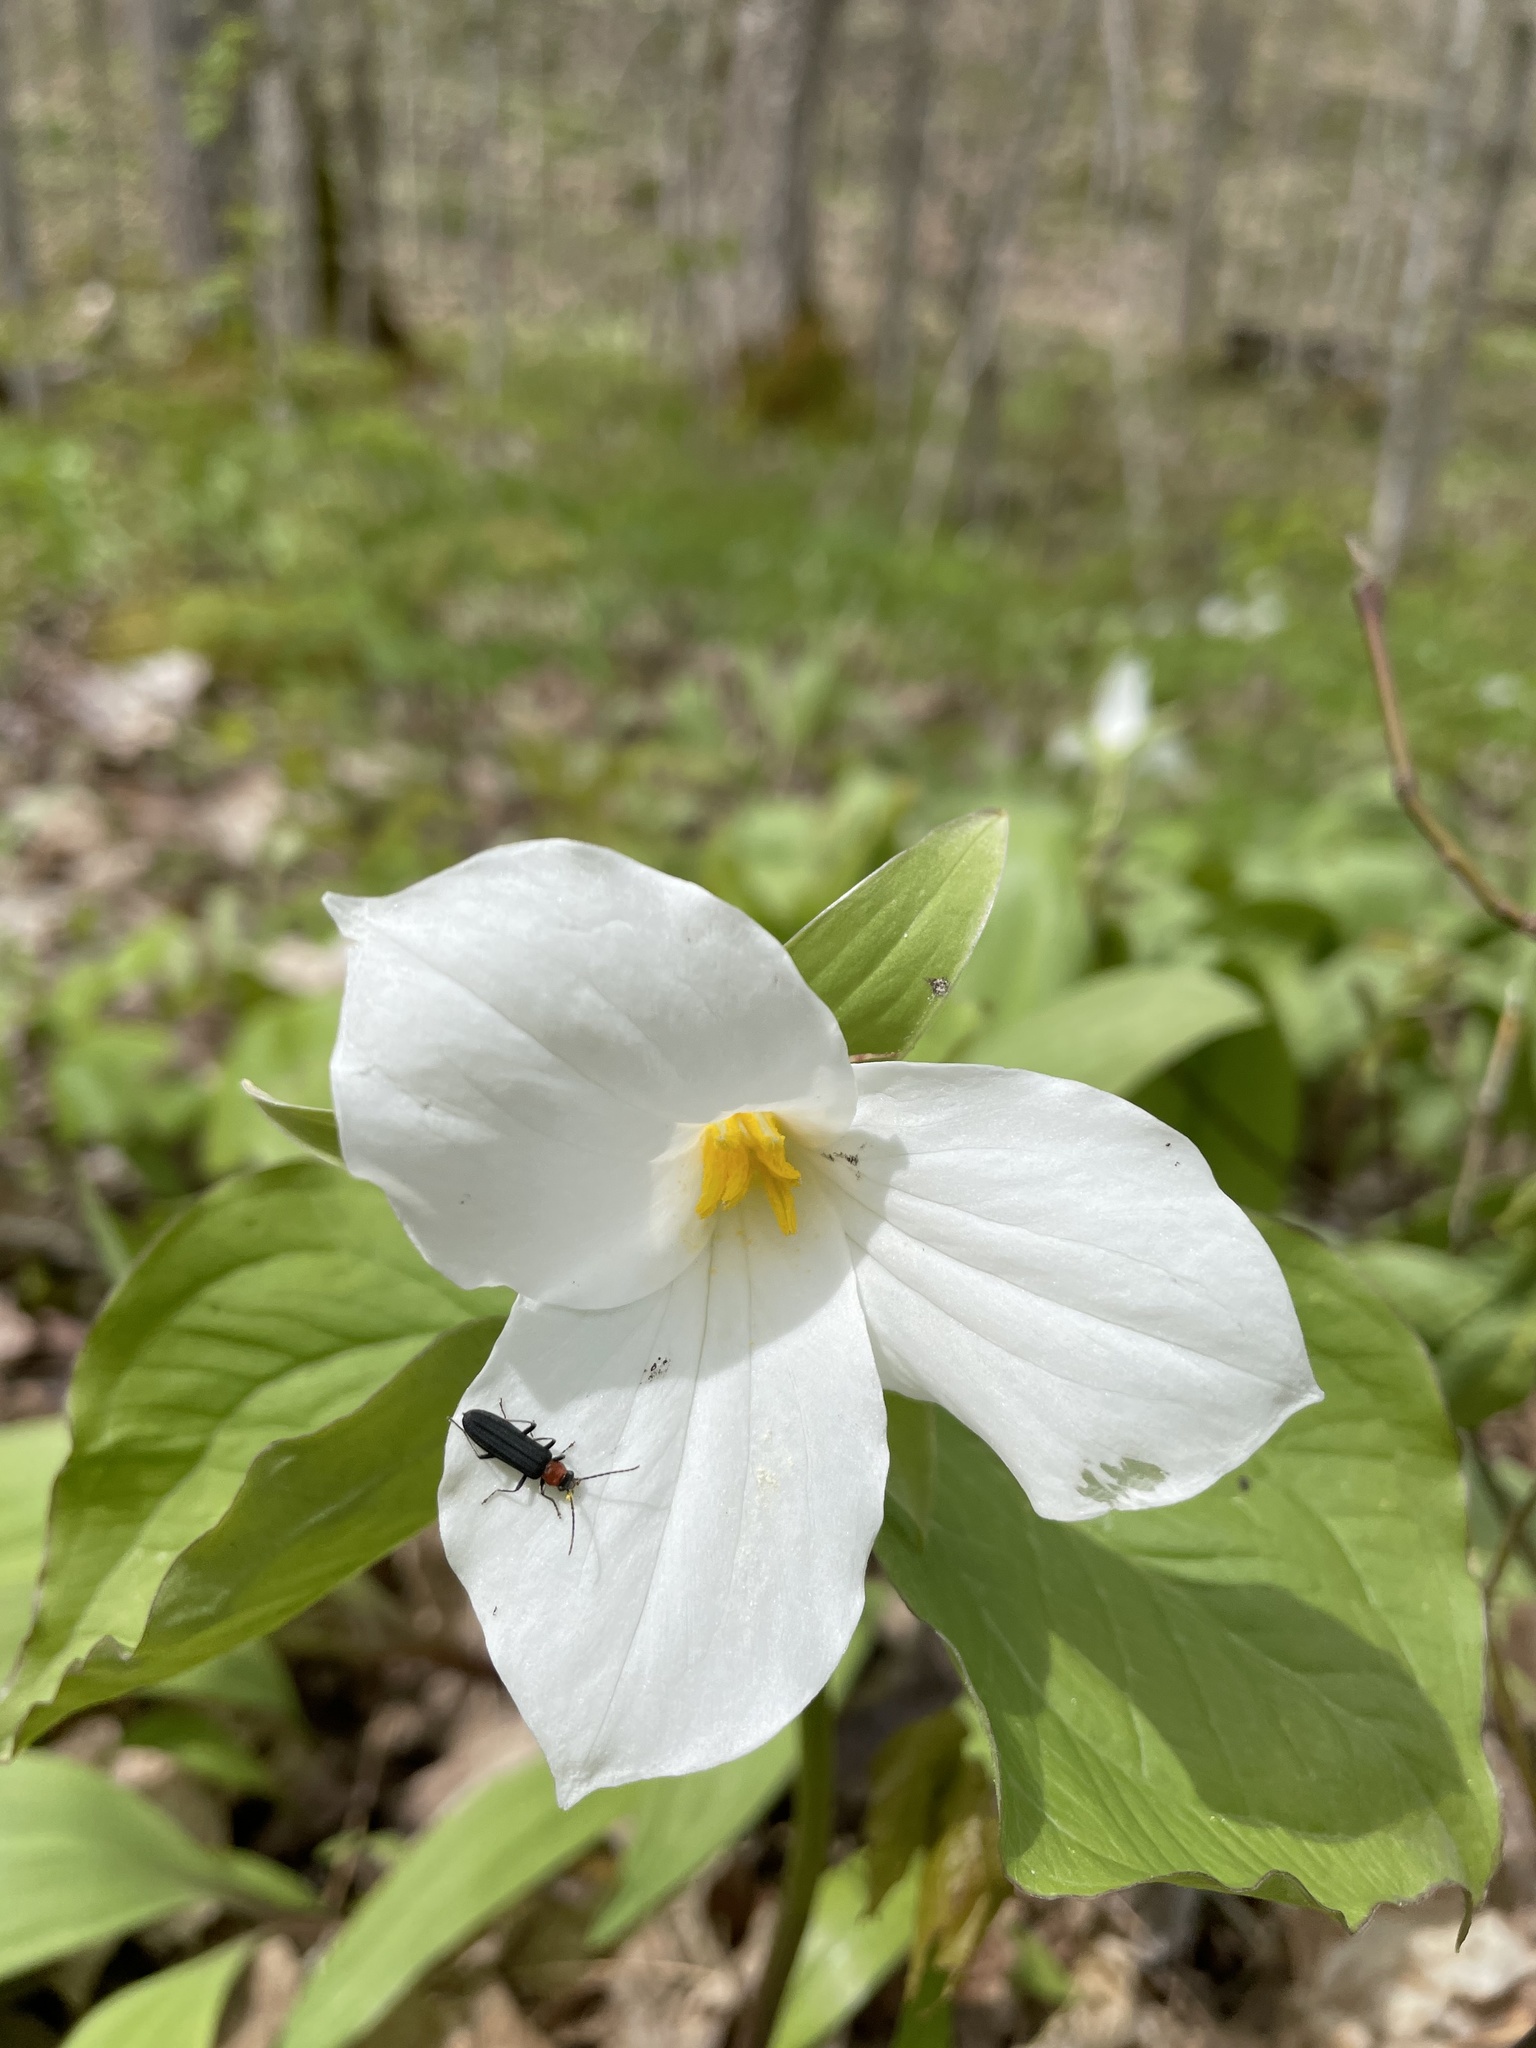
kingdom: Animalia
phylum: Arthropoda
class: Insecta
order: Coleoptera
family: Oedemeridae
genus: Ischnomera
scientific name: Ischnomera
